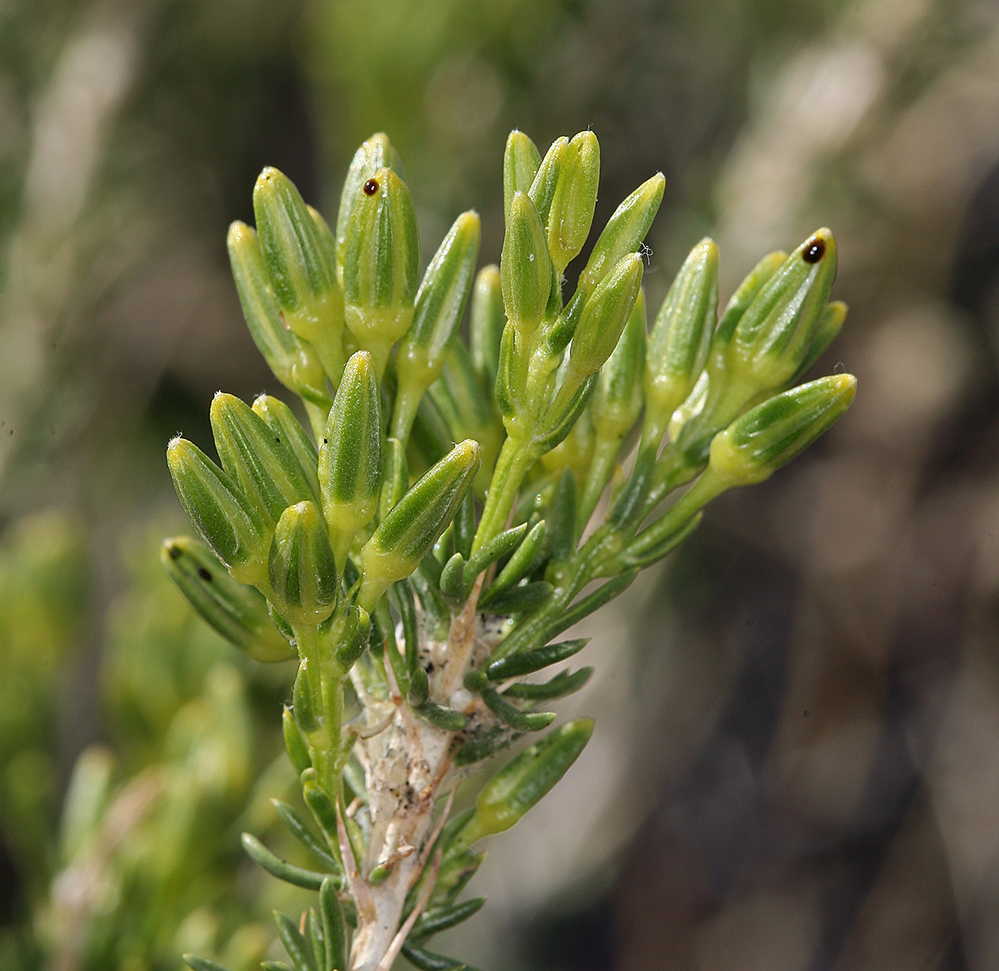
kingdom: Plantae
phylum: Tracheophyta
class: Magnoliopsida
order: Asterales
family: Asteraceae
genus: Tetradymia
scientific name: Tetradymia glabrata
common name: Smooth tetradymia
